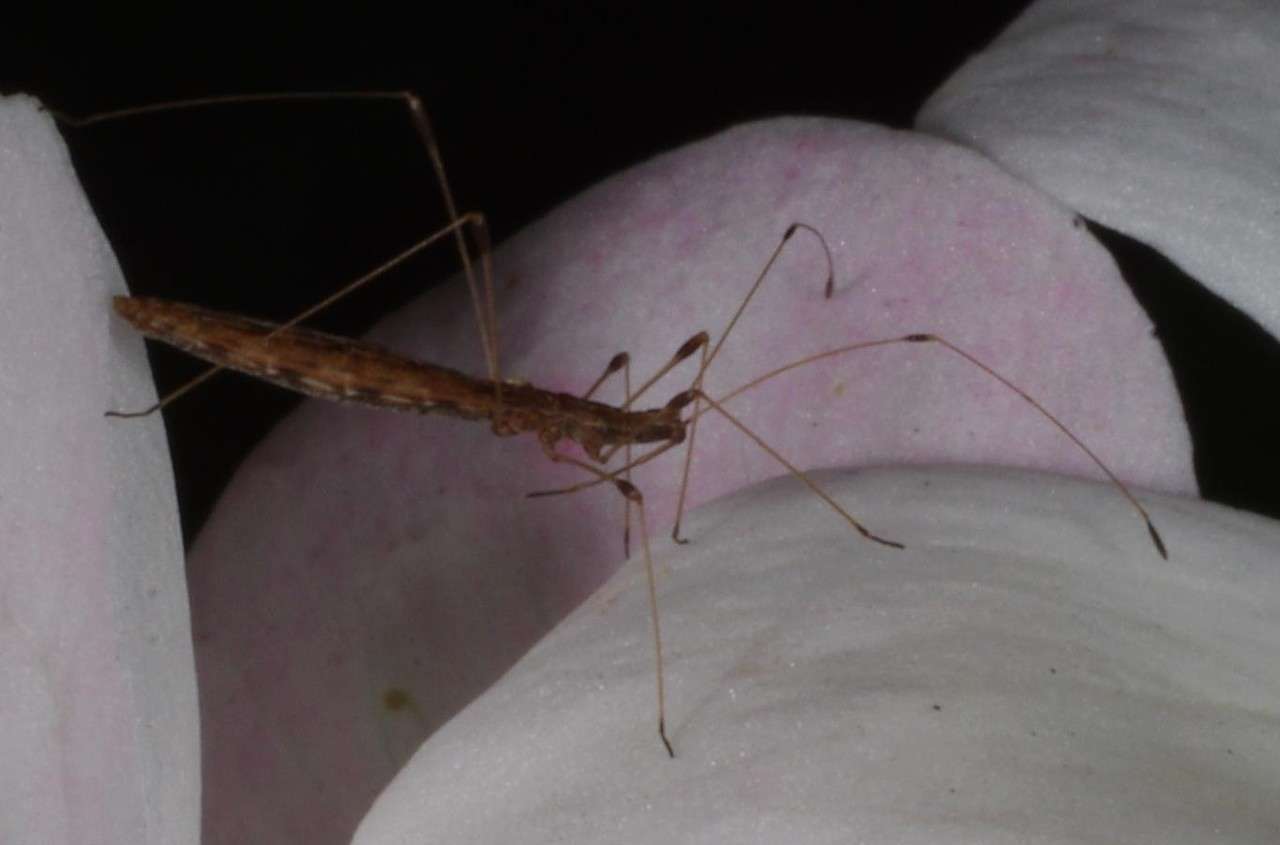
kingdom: Animalia
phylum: Arthropoda
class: Insecta
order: Hemiptera
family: Berytidae
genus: Chinoneides
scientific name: Chinoneides tasmaniensis
